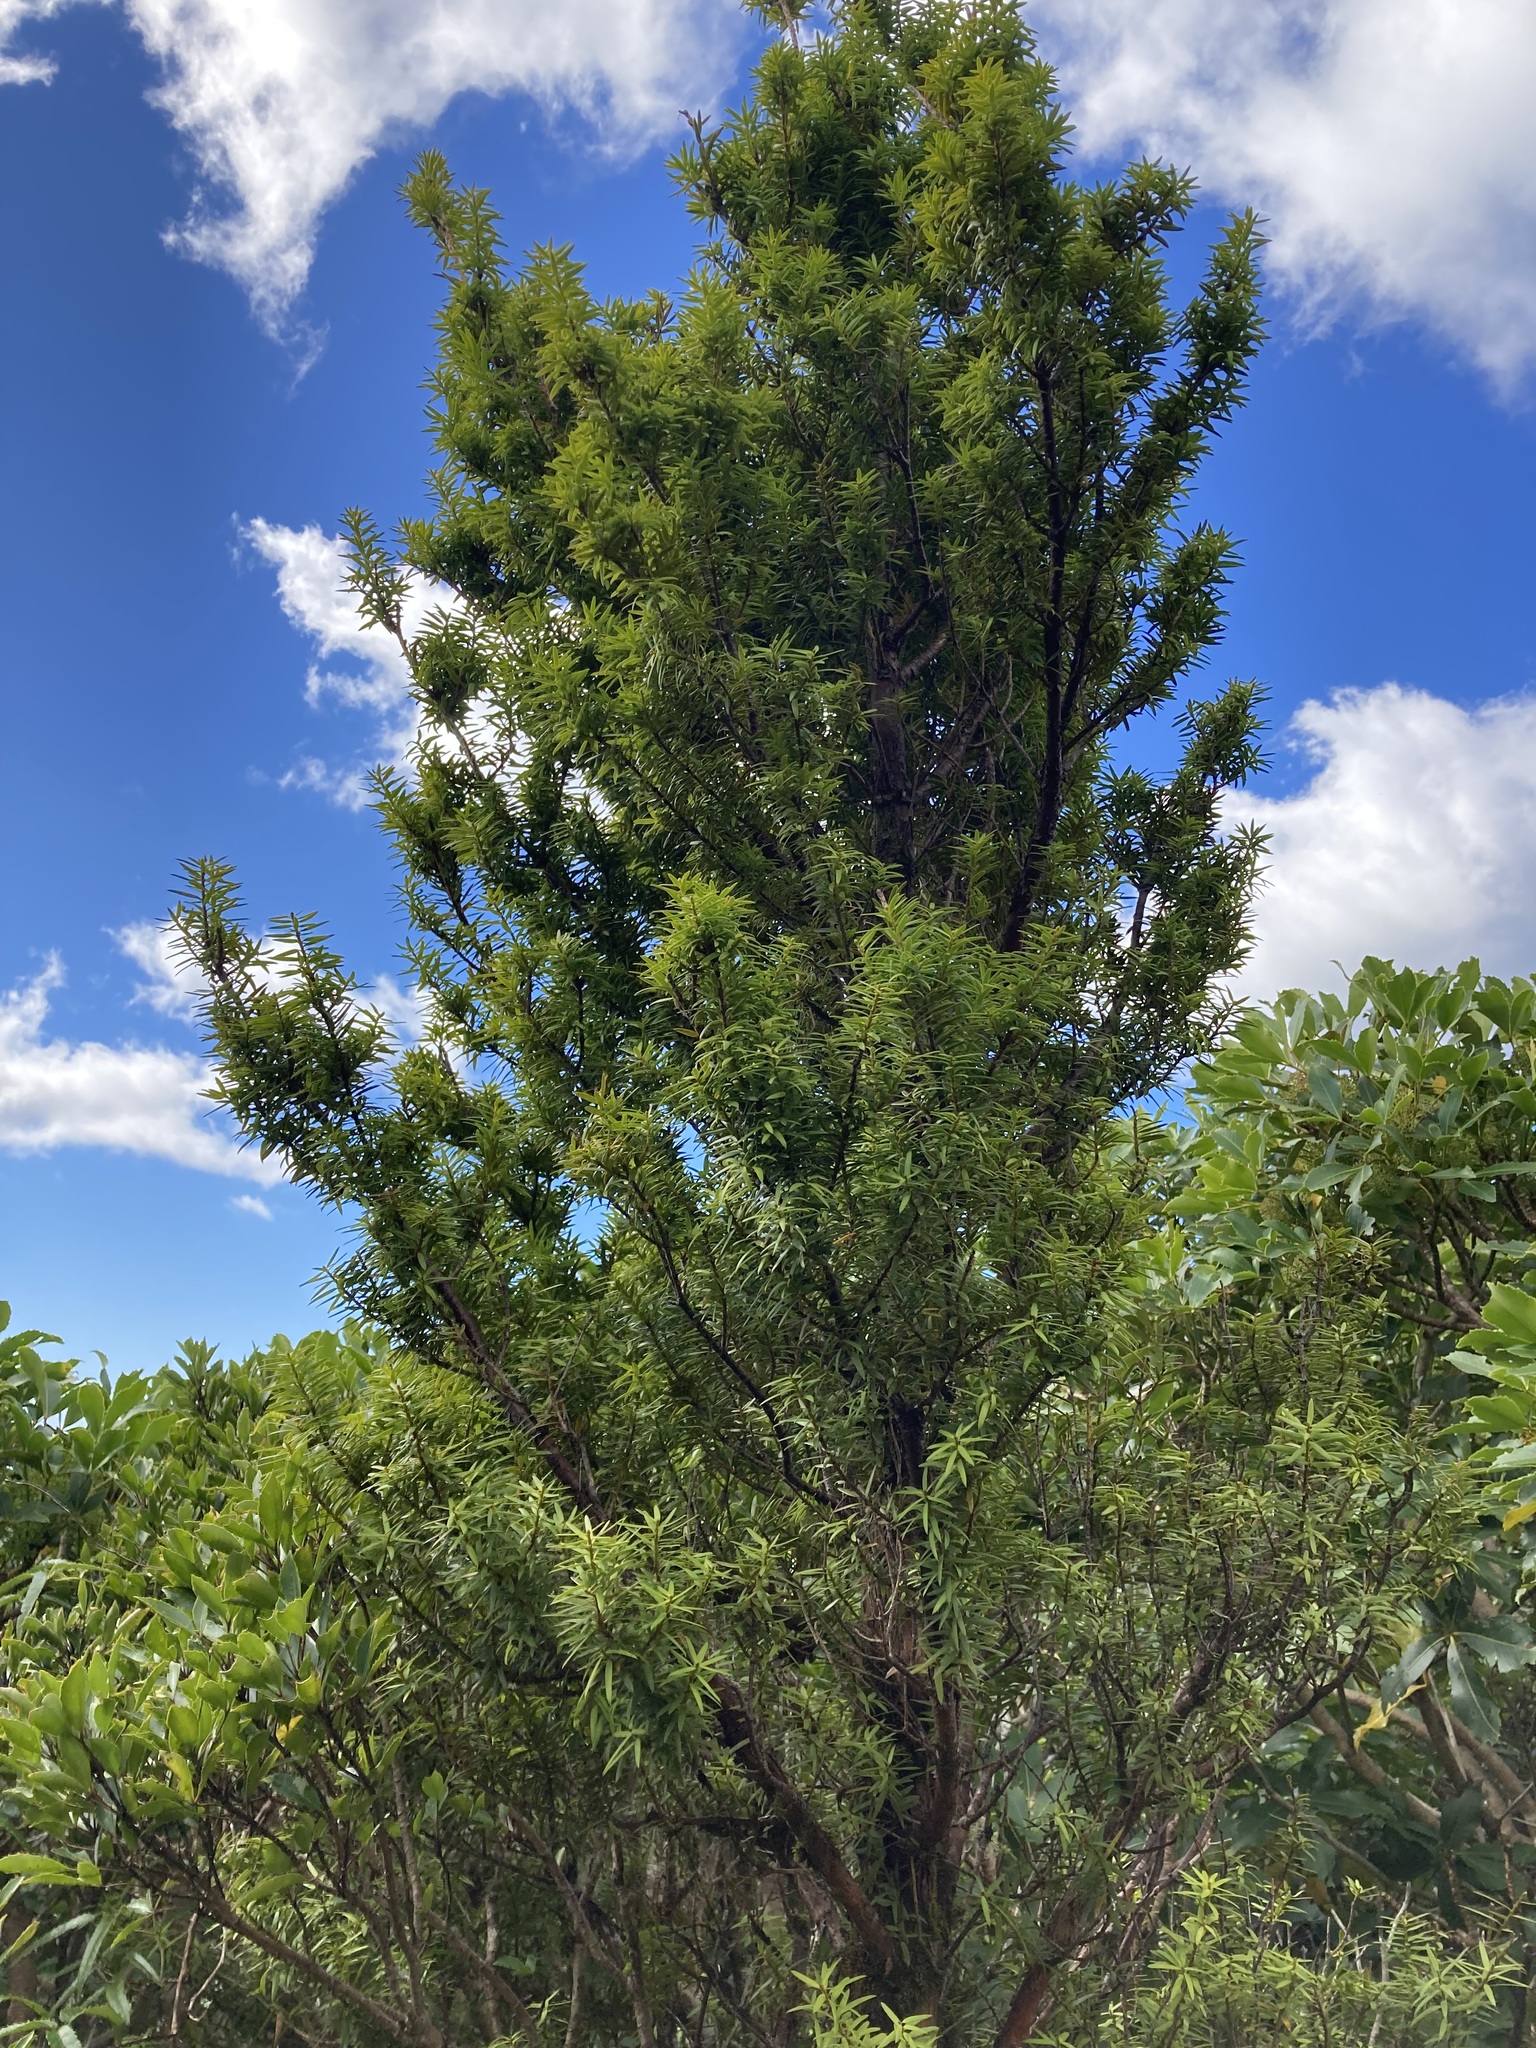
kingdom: Plantae
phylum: Tracheophyta
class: Pinopsida
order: Pinales
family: Podocarpaceae
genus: Podocarpus
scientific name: Podocarpus laetus
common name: Hall's totara
